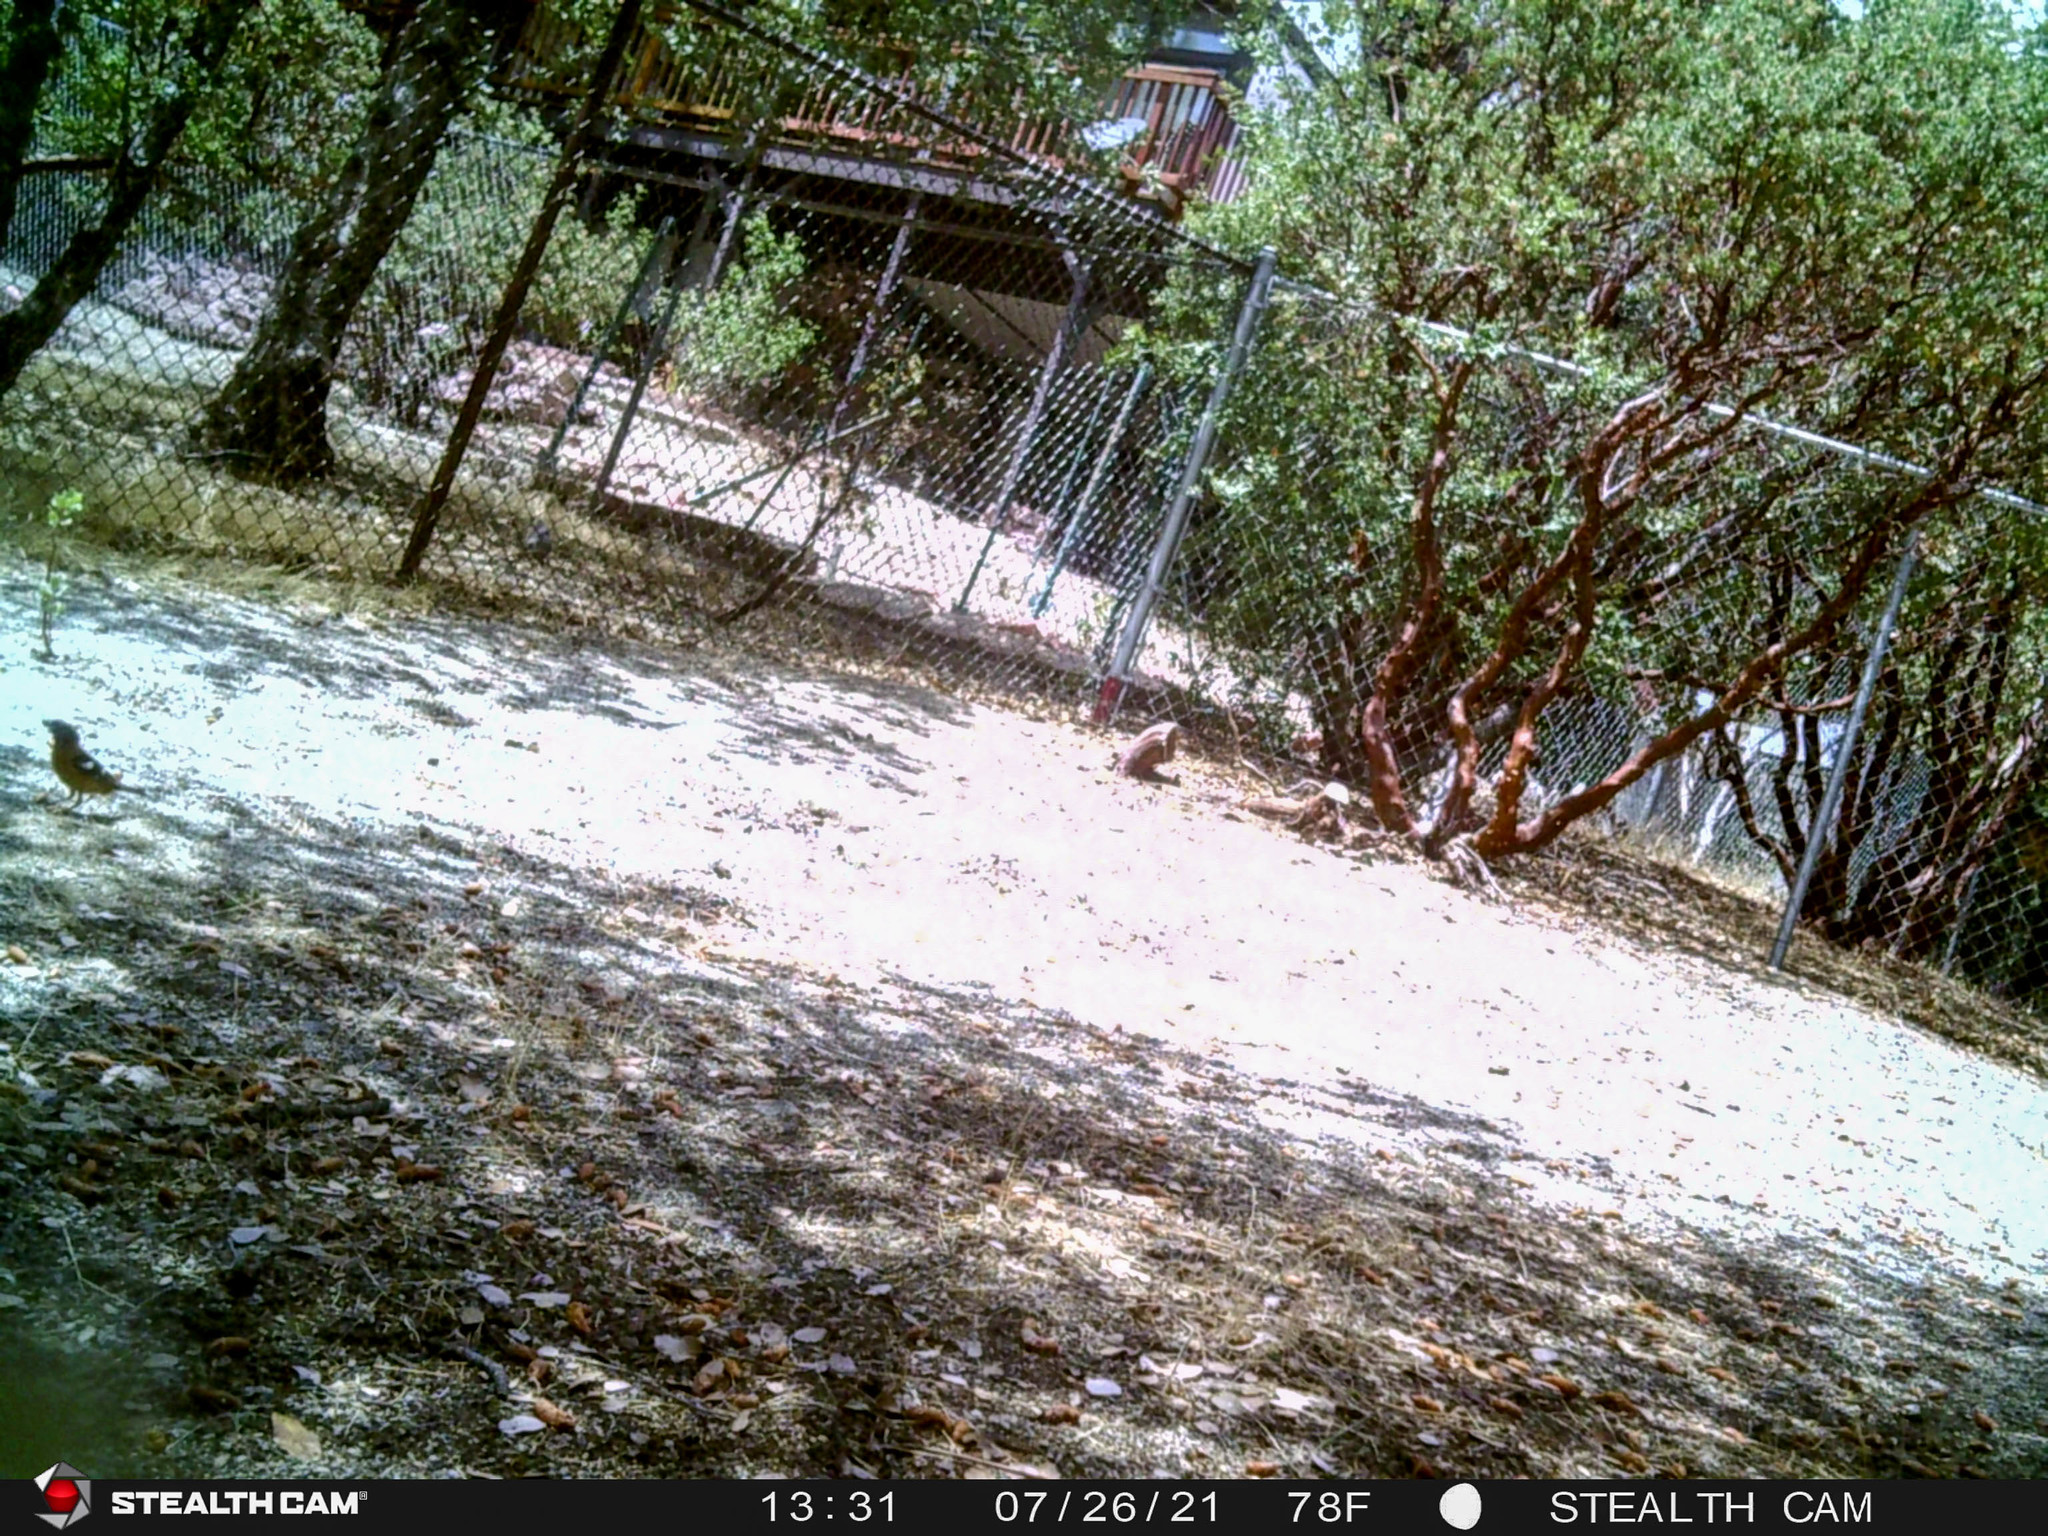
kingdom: Animalia
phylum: Chordata
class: Aves
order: Passeriformes
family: Cardinalidae
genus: Pheucticus
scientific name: Pheucticus melanocephalus
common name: Black-headed grosbeak
